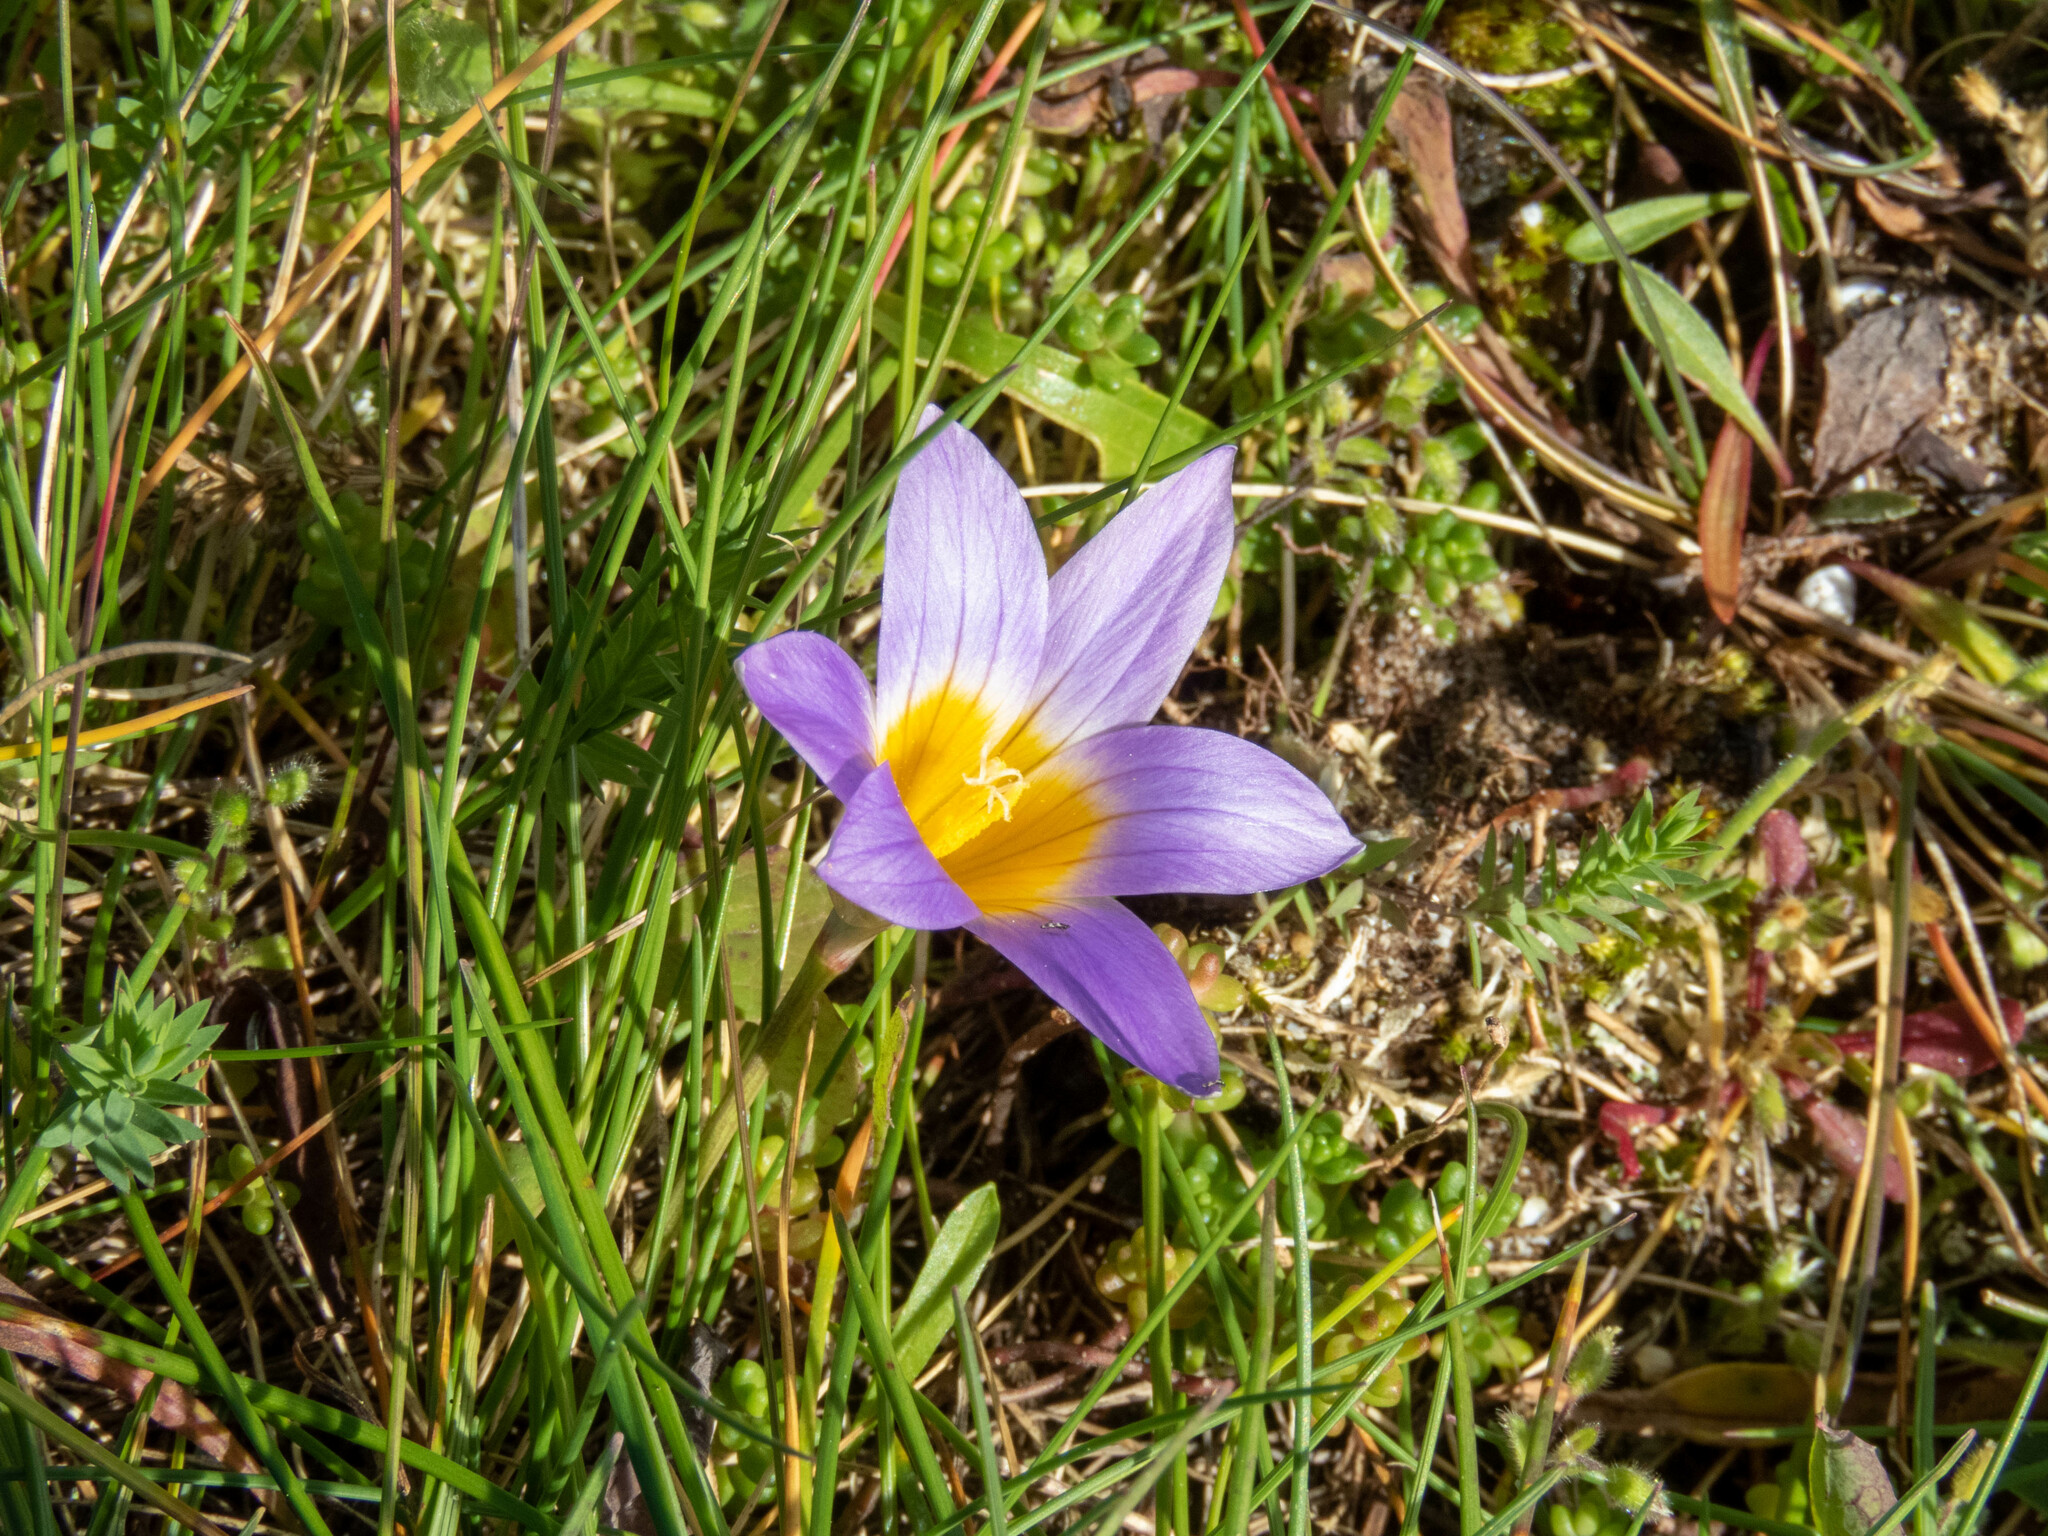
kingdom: Plantae
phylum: Tracheophyta
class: Liliopsida
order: Asparagales
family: Iridaceae
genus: Romulea
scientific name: Romulea clusiana
